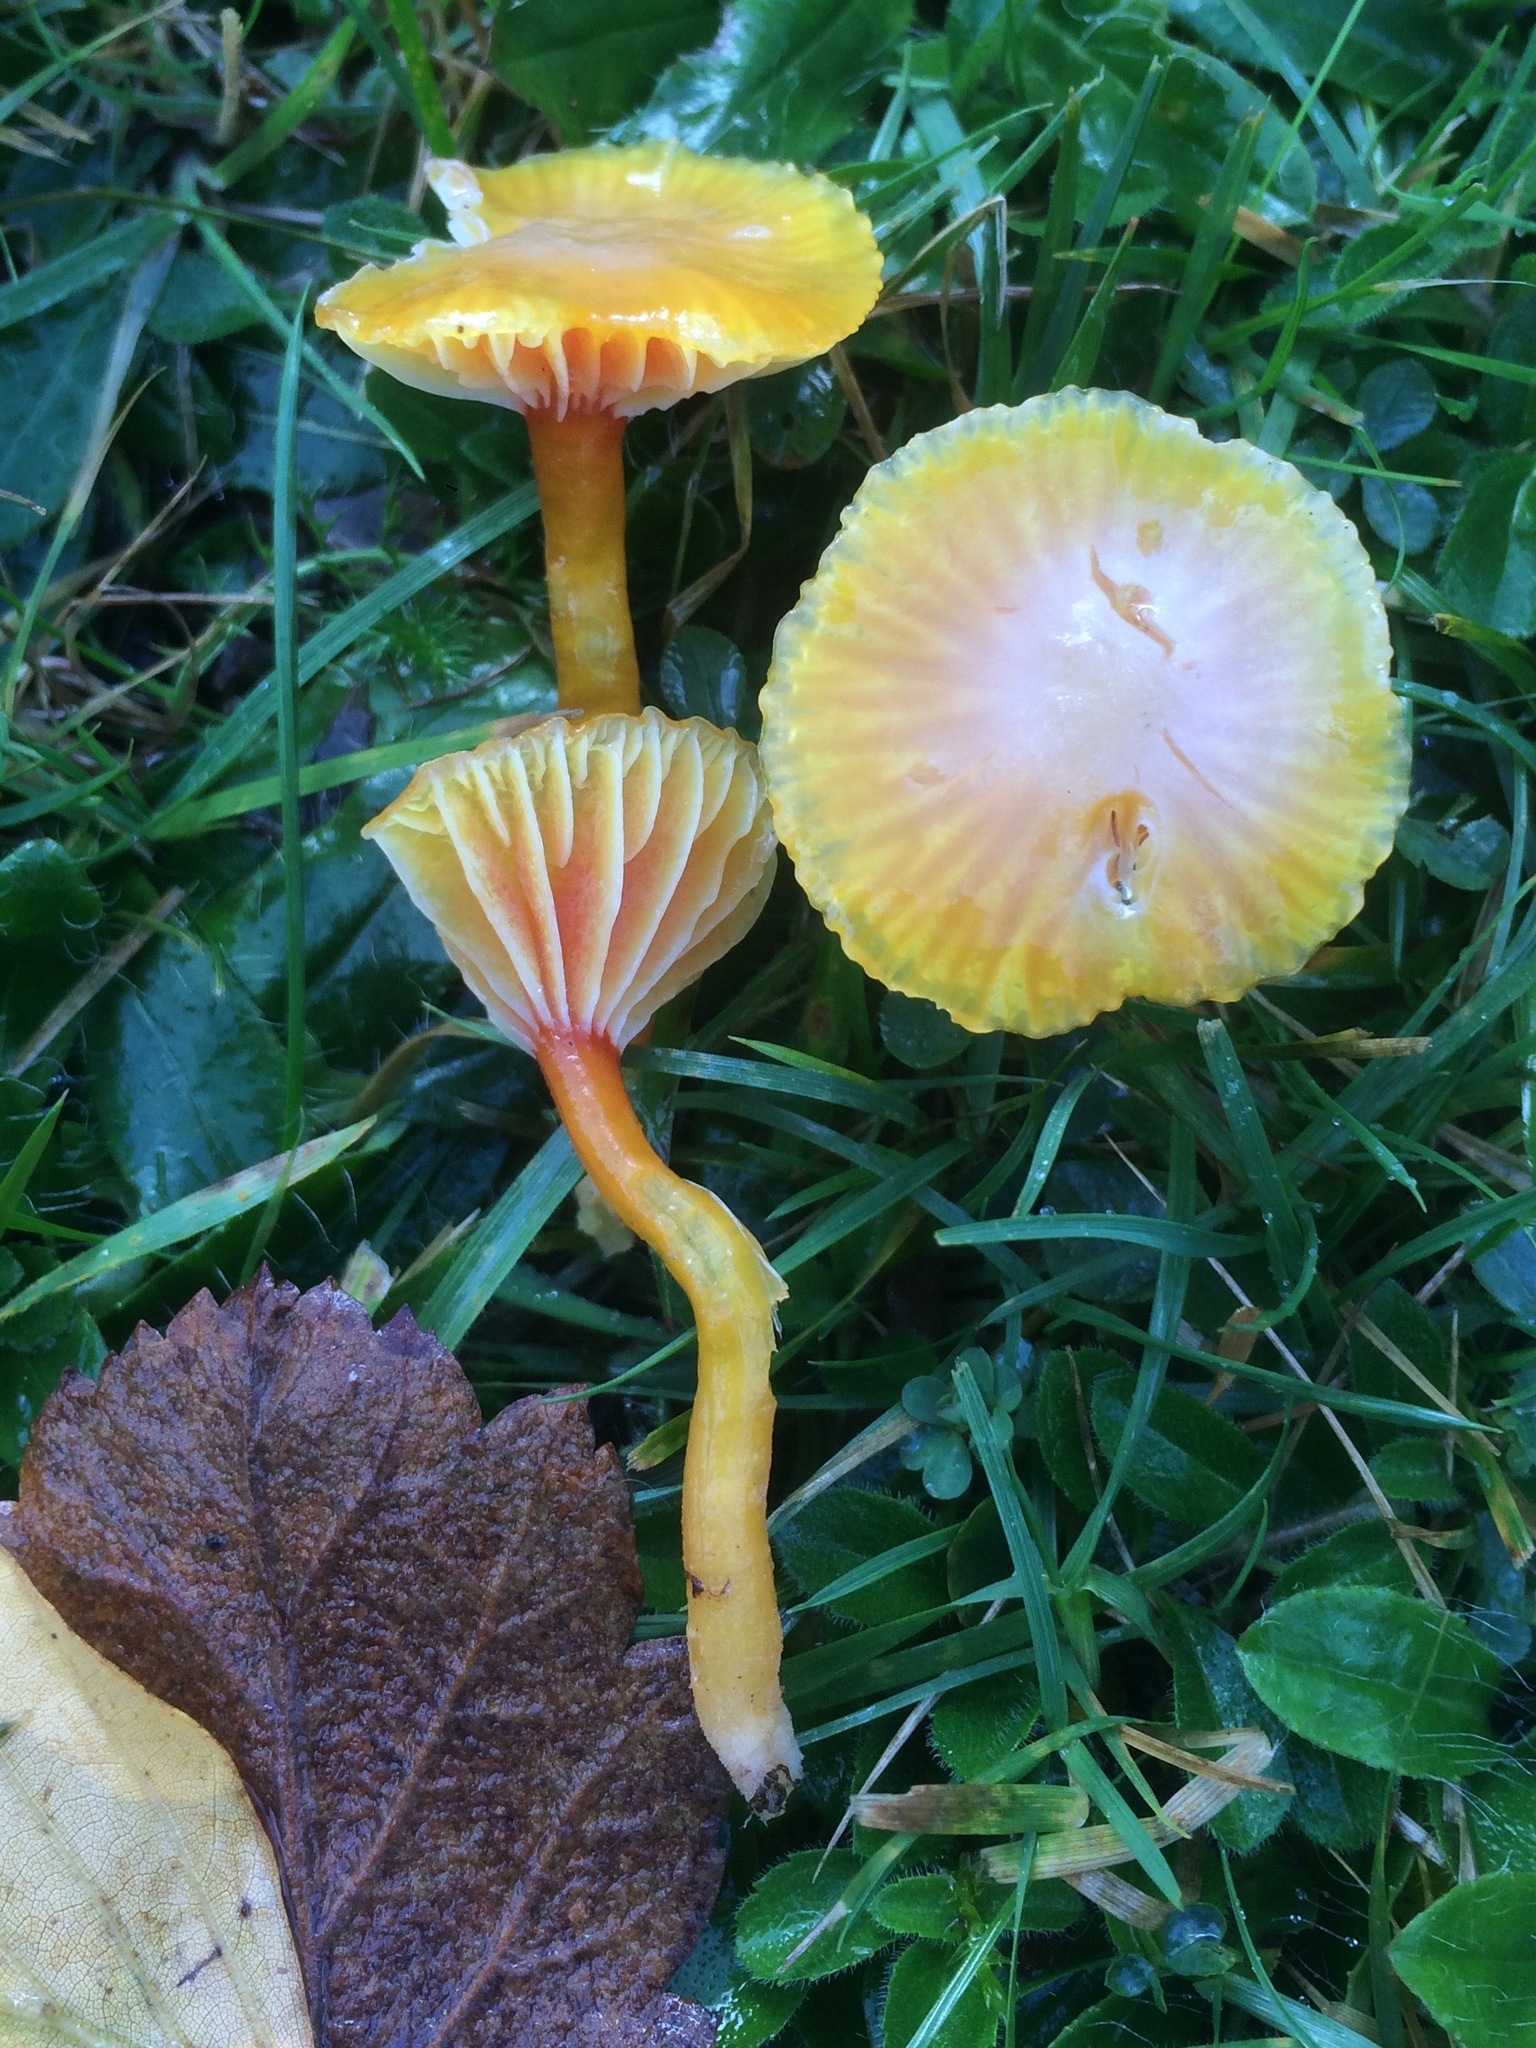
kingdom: Fungi
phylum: Basidiomycota
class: Agaricomycetes
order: Agaricales
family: Hygrophoraceae
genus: Hygrocybe
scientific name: Hygrocybe insipida
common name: Spangle waxcap
